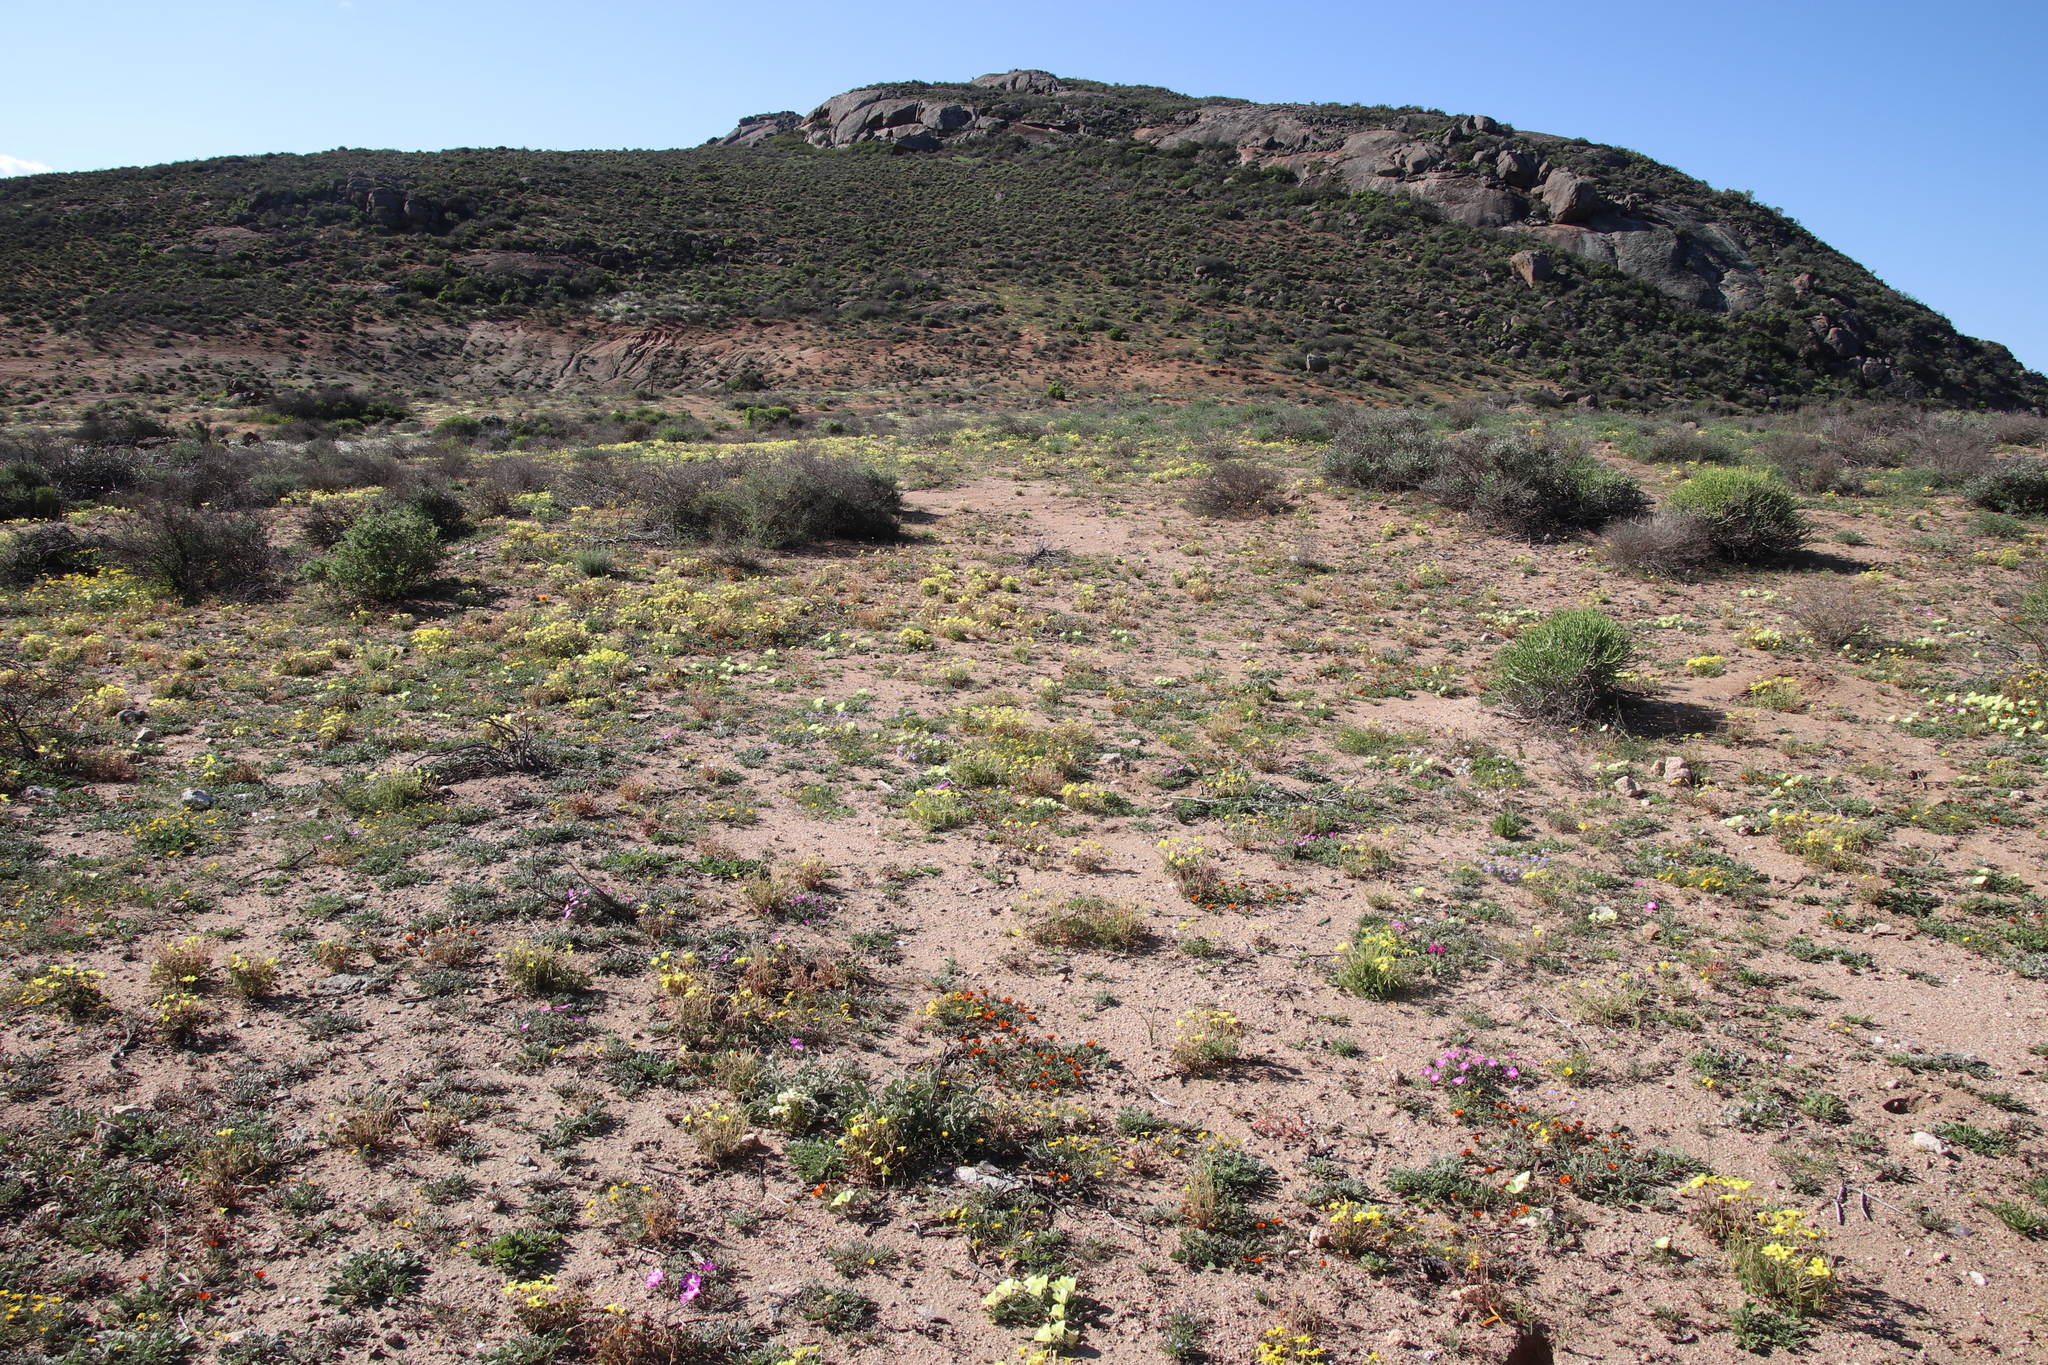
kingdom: Plantae
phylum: Tracheophyta
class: Magnoliopsida
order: Malvales
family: Neuradaceae
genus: Grielum
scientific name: Grielum humifusum
